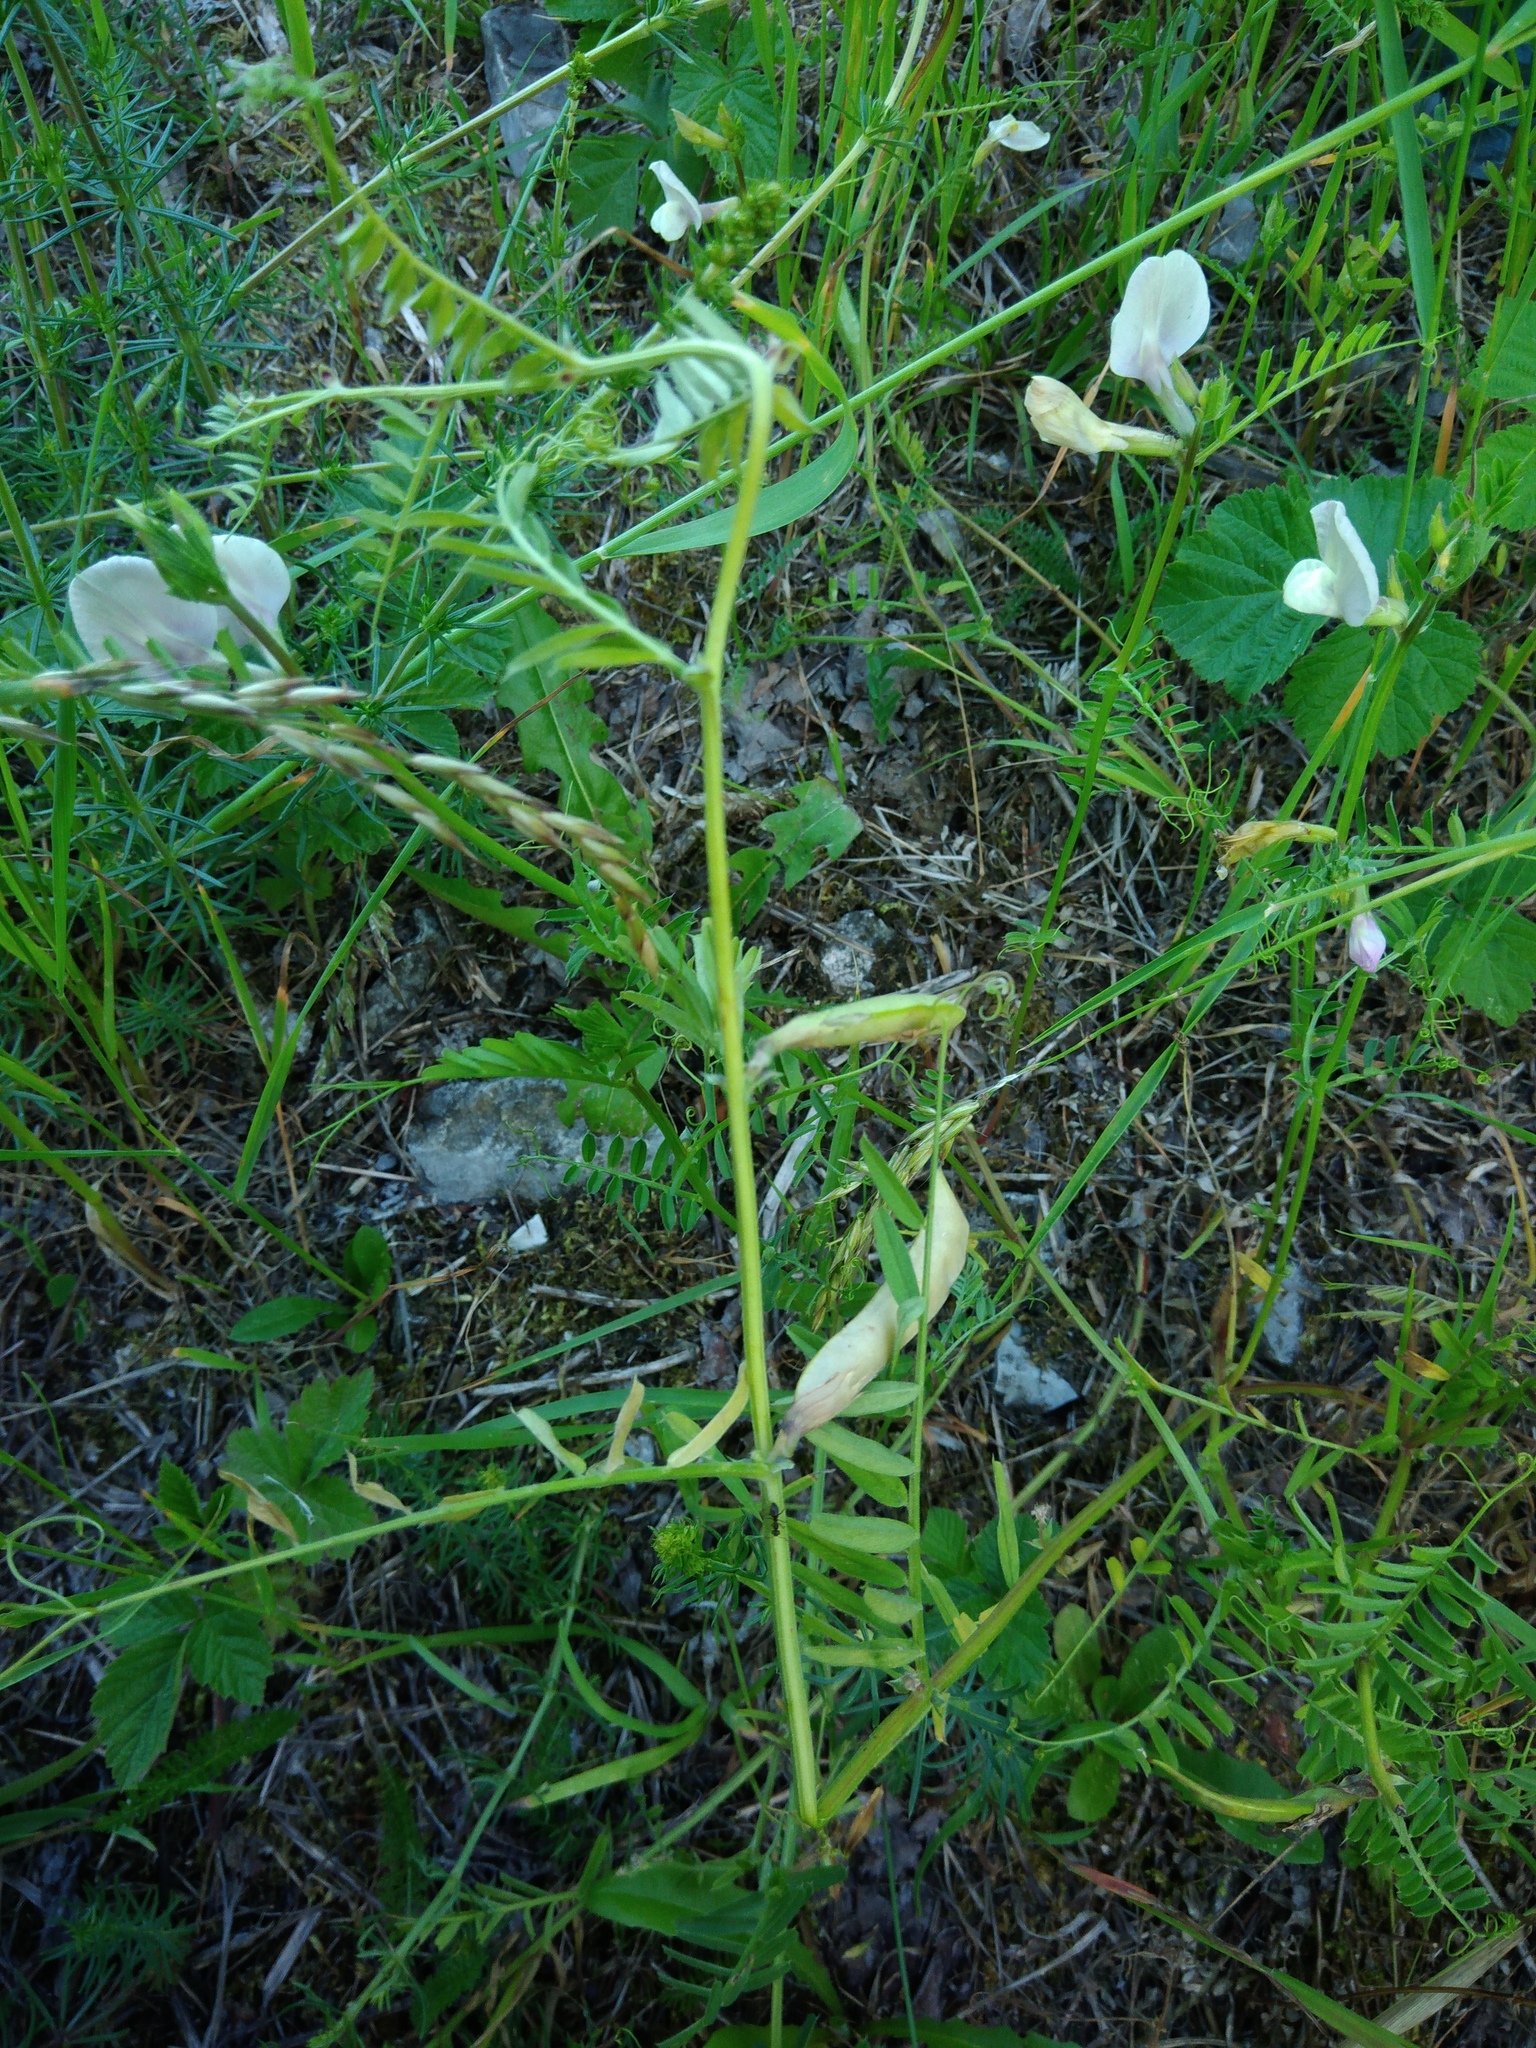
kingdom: Plantae
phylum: Tracheophyta
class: Magnoliopsida
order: Fabales
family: Fabaceae
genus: Vicia
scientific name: Vicia grandiflora
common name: Large yellow vetch
